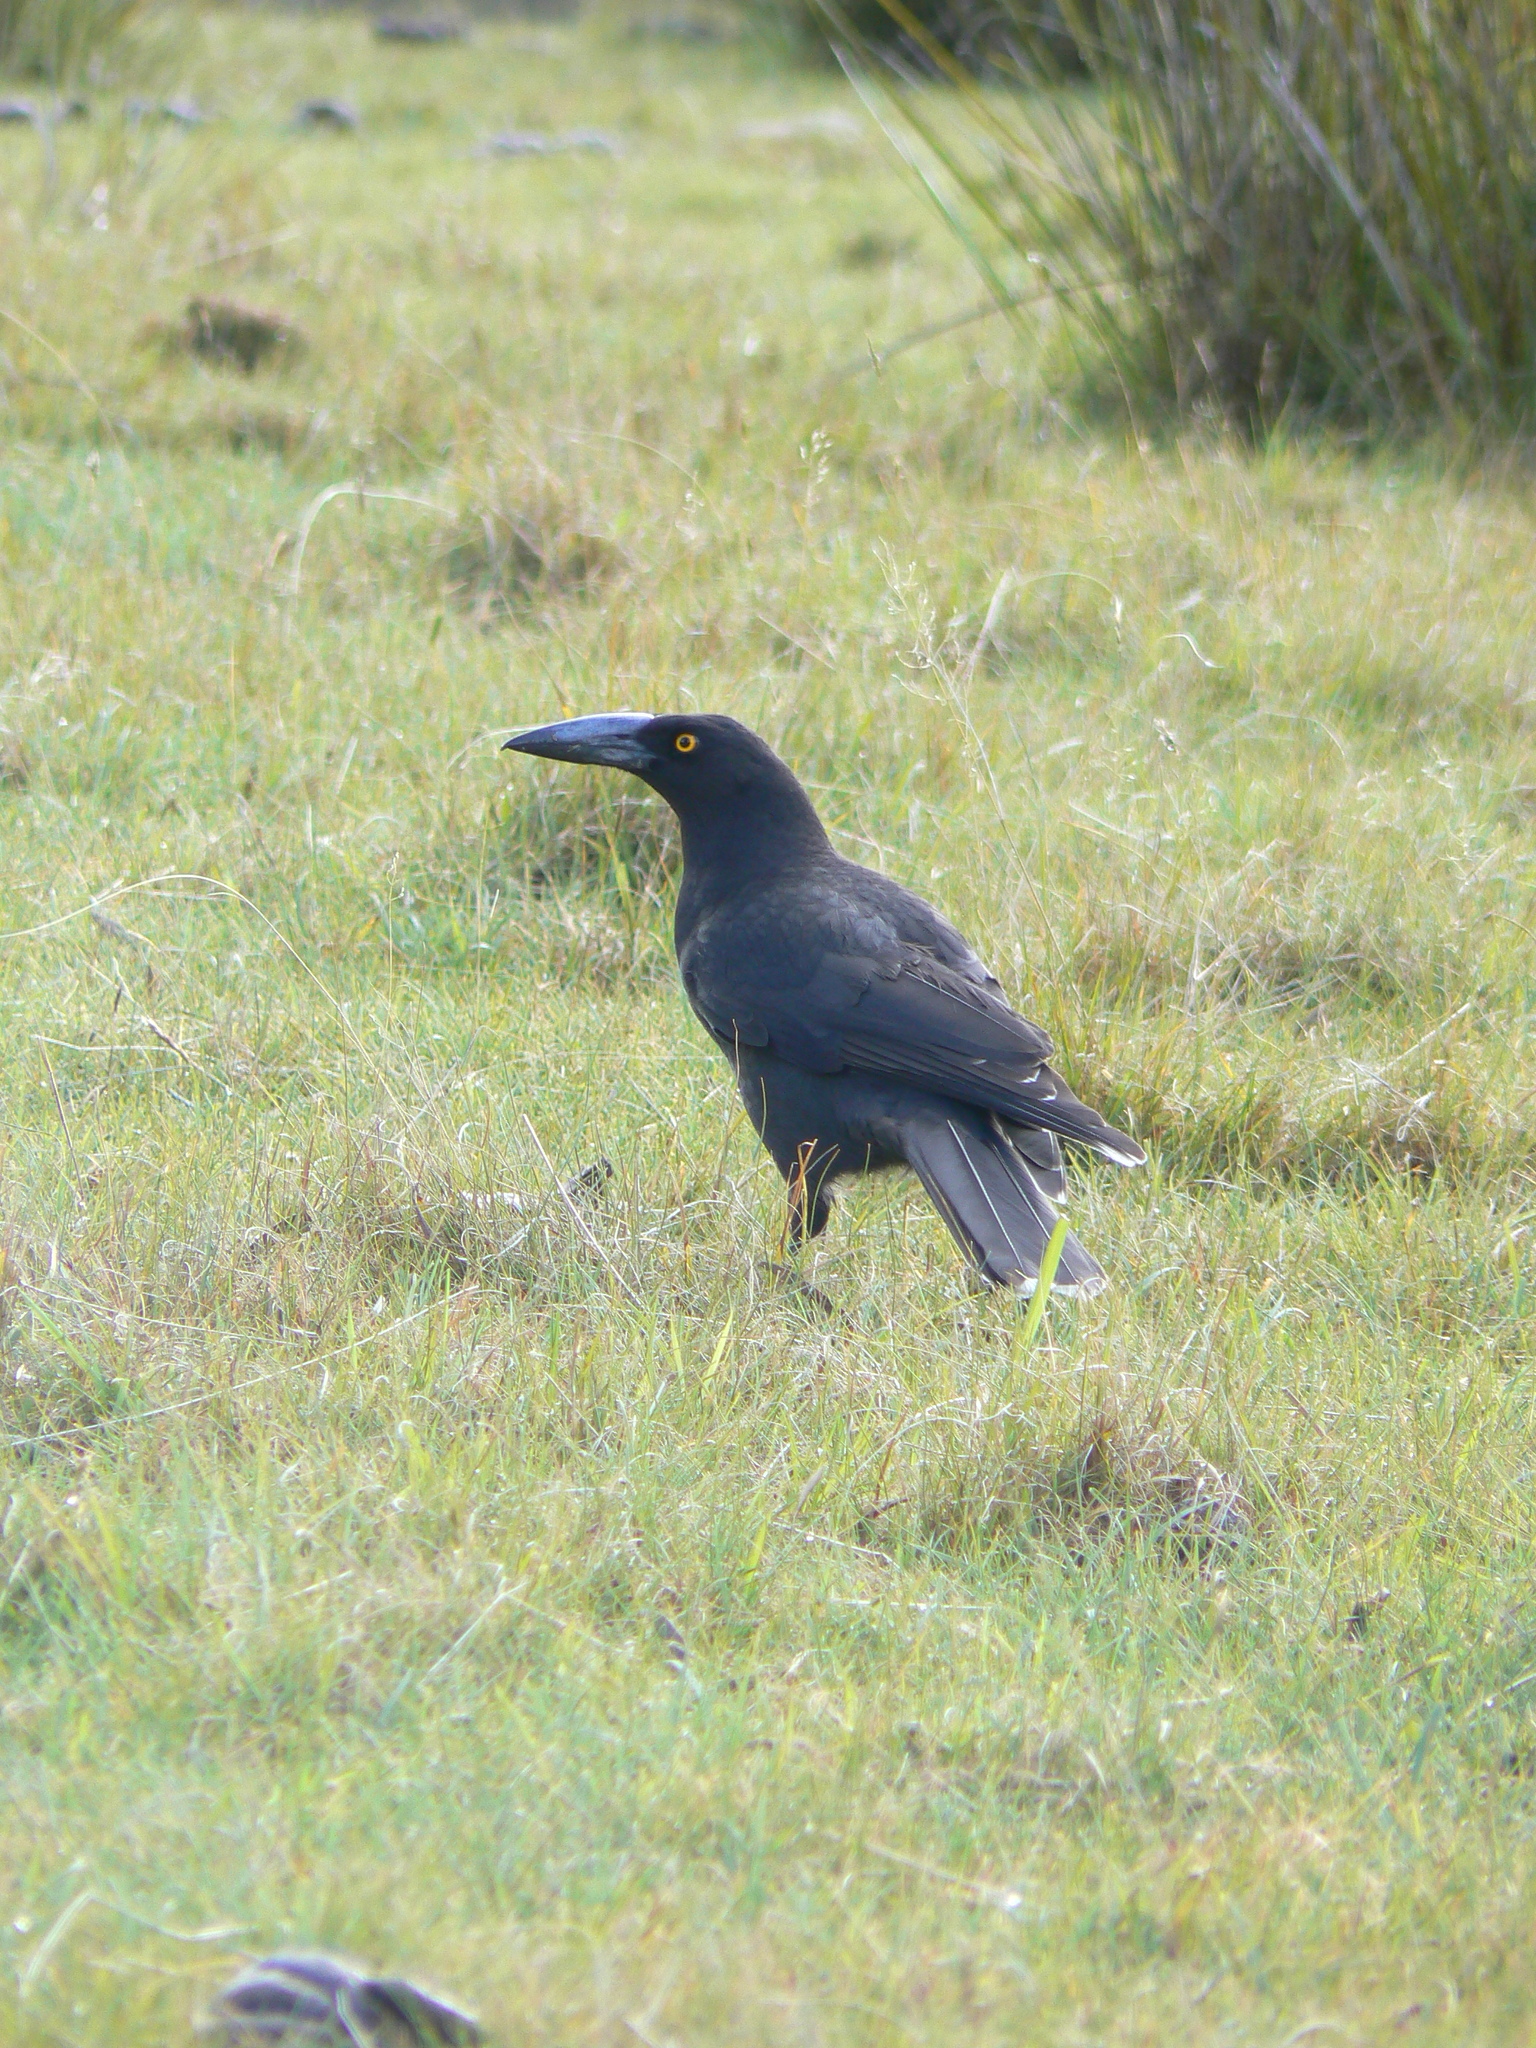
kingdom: Animalia
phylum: Chordata
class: Aves
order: Passeriformes
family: Cracticidae
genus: Strepera
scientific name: Strepera fuliginosa
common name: Black currawong
